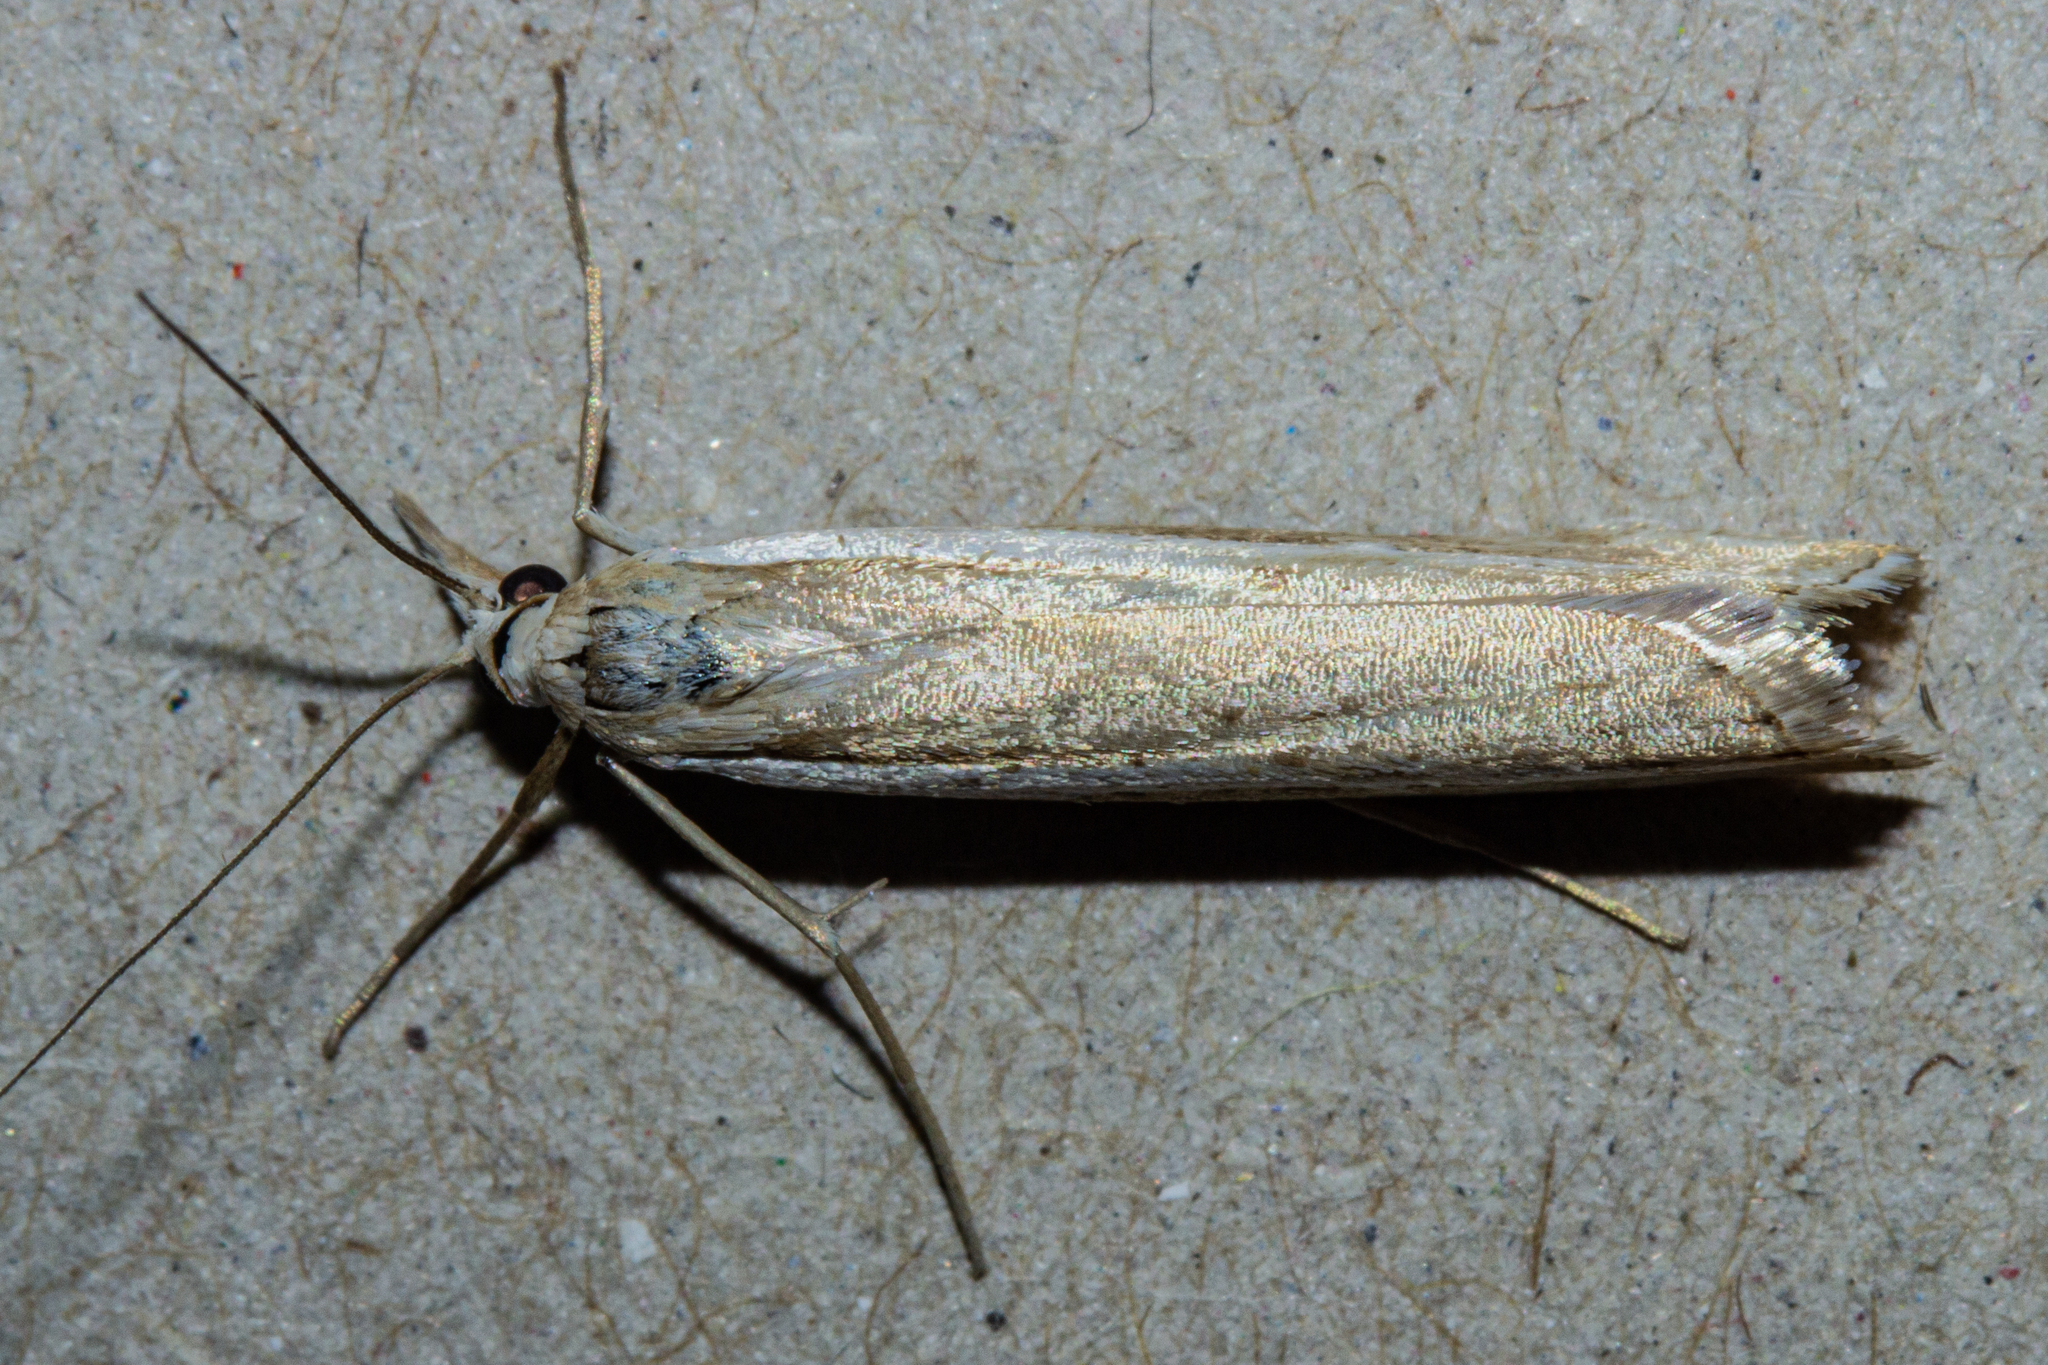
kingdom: Animalia
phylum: Arthropoda
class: Insecta
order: Lepidoptera
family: Crambidae
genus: Orocrambus
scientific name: Orocrambus vittellus
